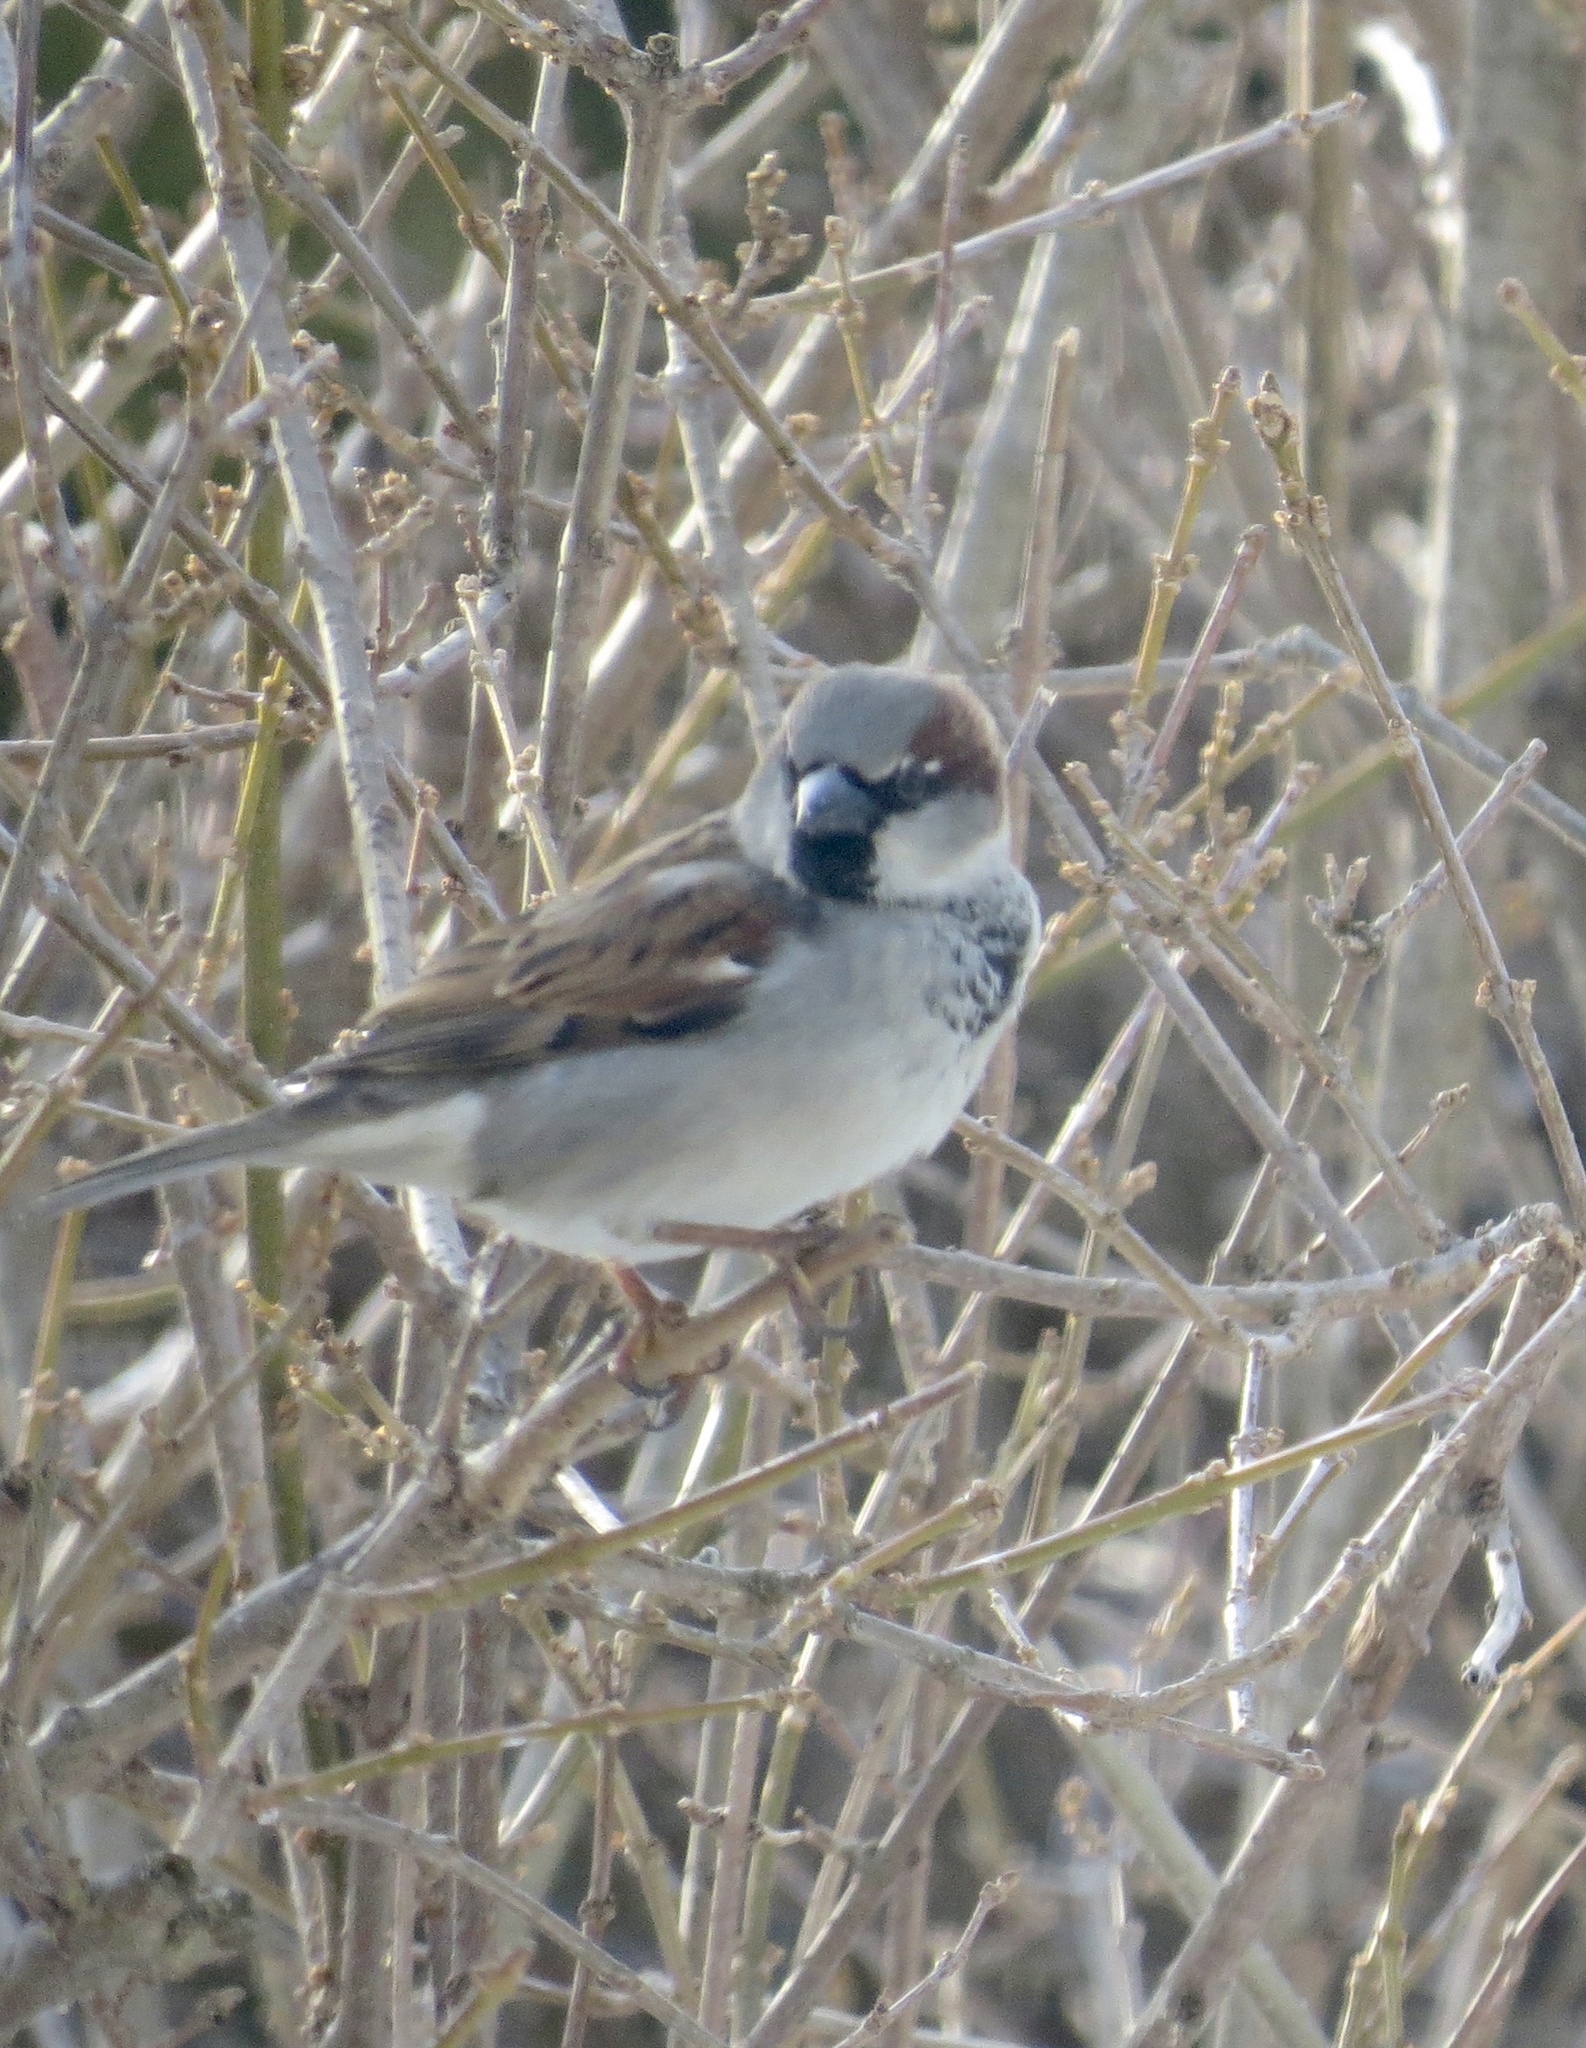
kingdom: Animalia
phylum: Chordata
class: Aves
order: Passeriformes
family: Passeridae
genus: Passer
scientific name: Passer domesticus
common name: House sparrow
